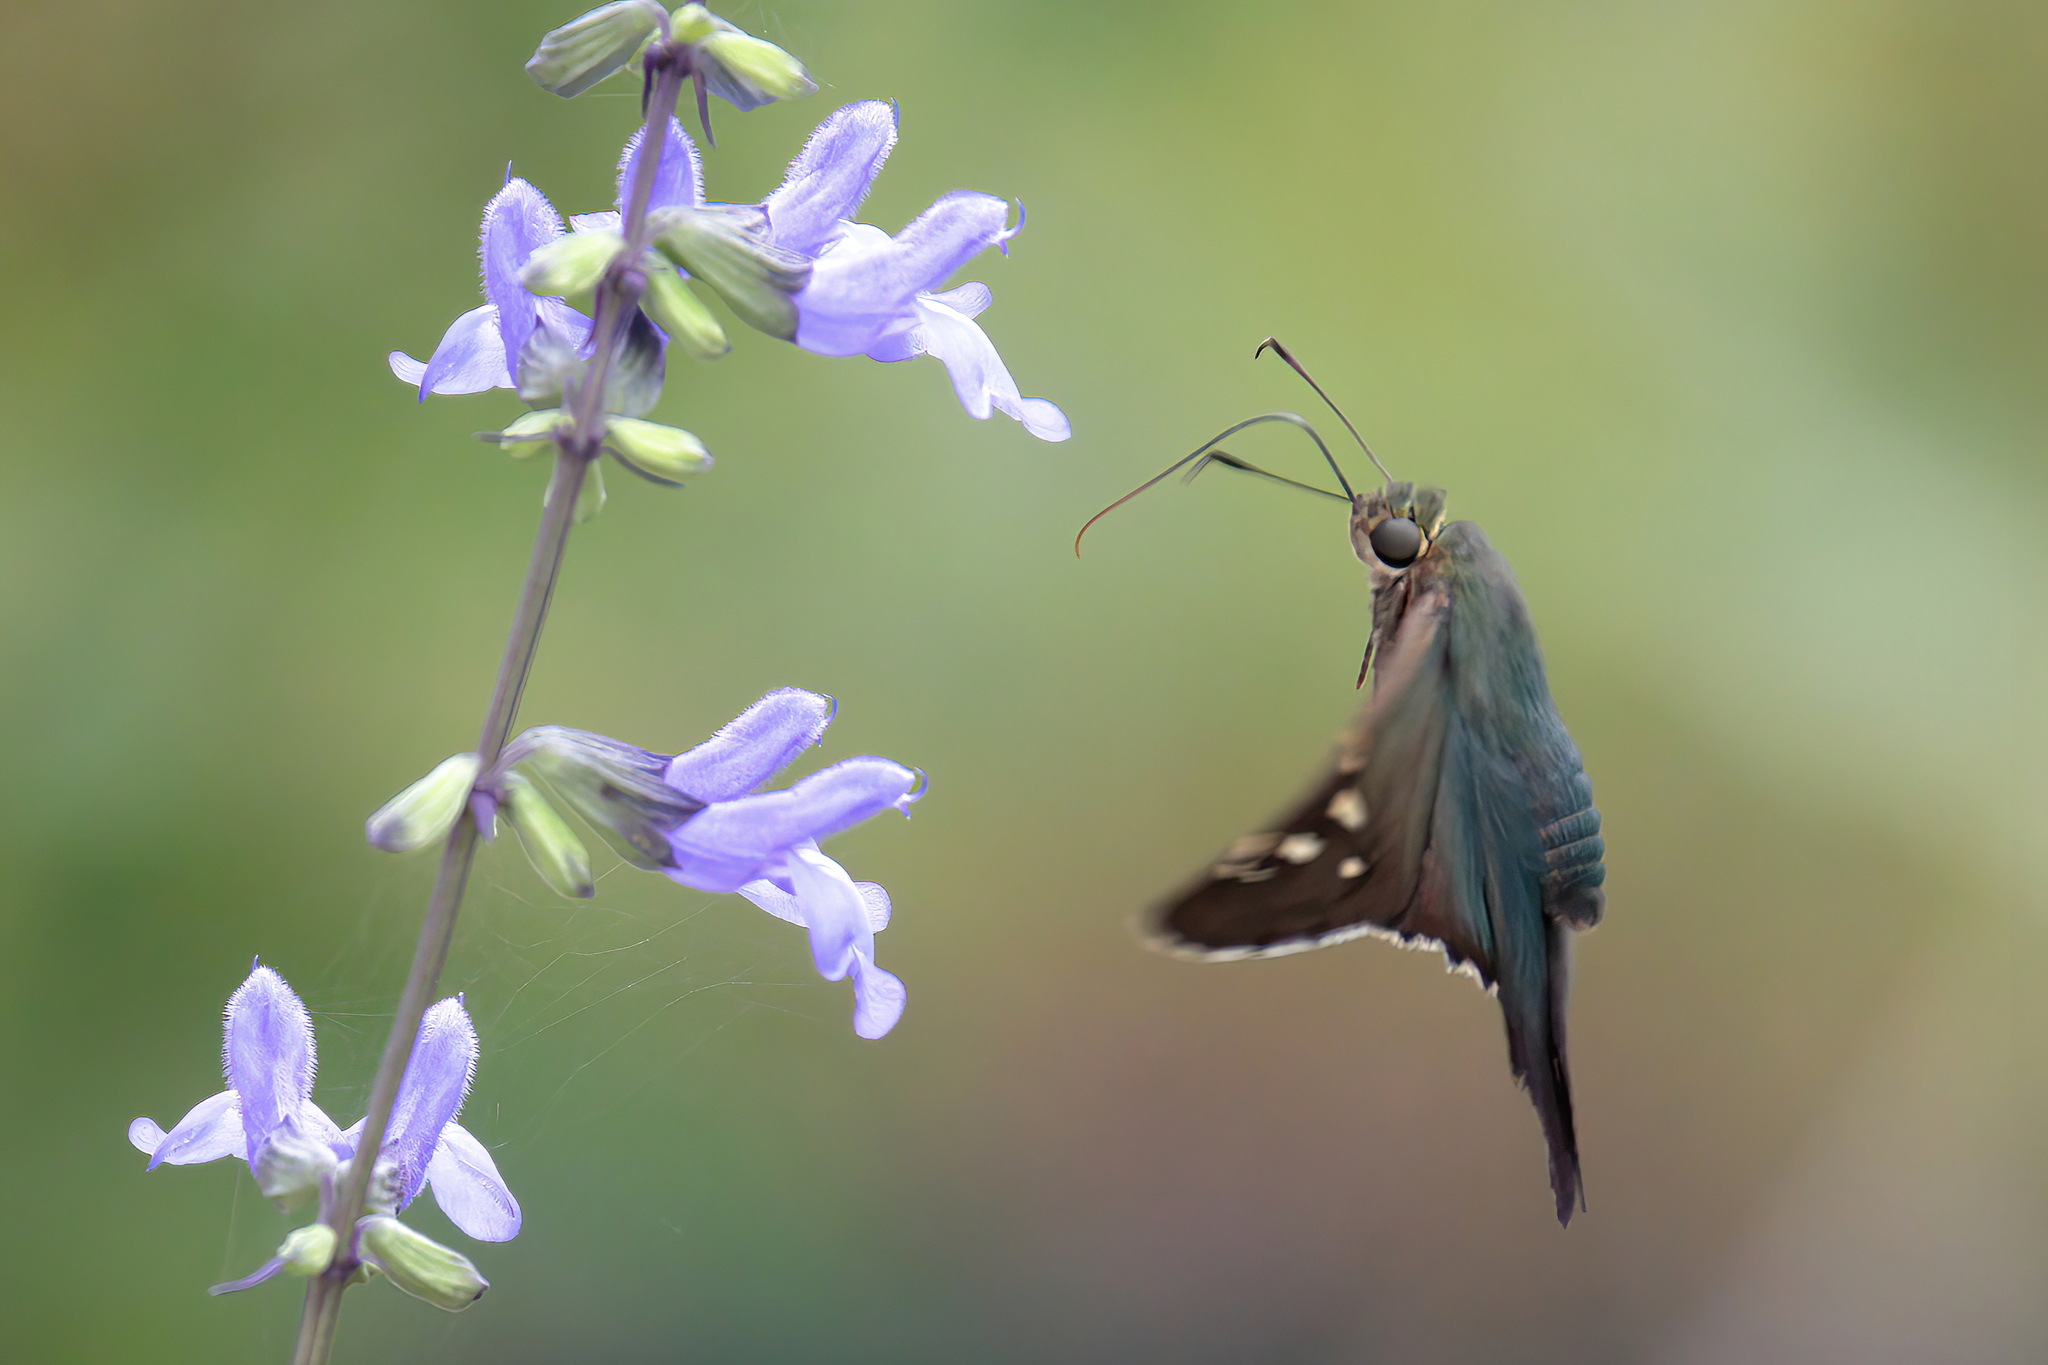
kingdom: Animalia
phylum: Arthropoda
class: Insecta
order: Lepidoptera
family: Hesperiidae
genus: Urbanus
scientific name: Urbanus proteus
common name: Long-tailed skipper
